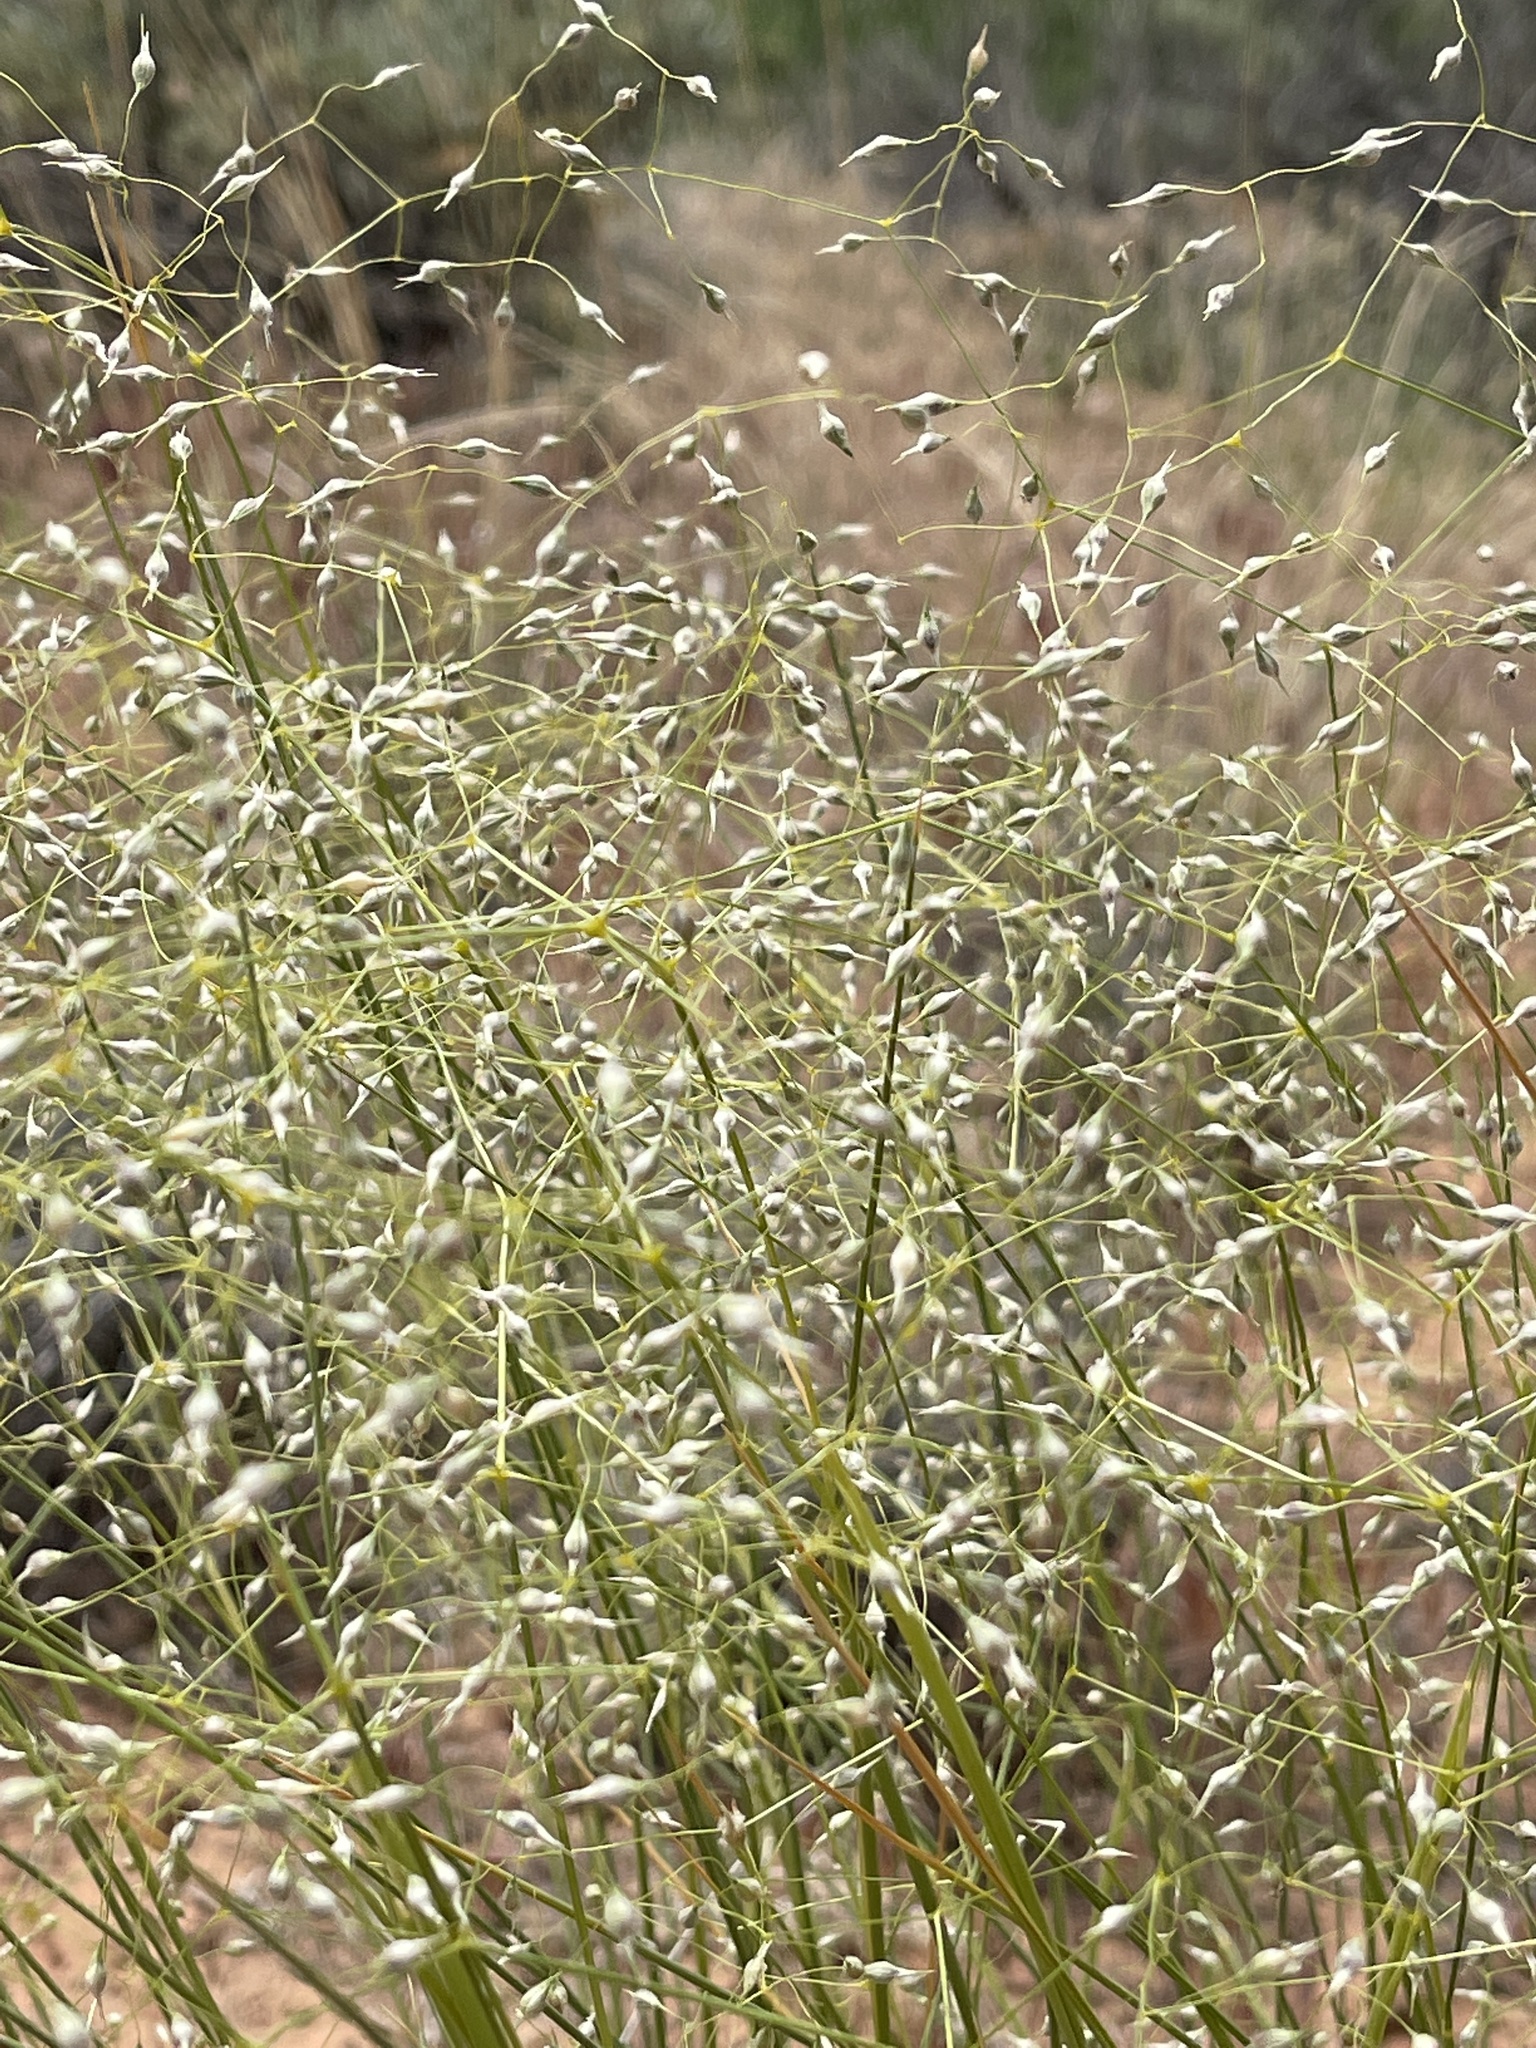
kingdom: Plantae
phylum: Tracheophyta
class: Liliopsida
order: Poales
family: Poaceae
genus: Eriocoma
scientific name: Eriocoma hymenoides
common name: Indian mountain ricegrass
